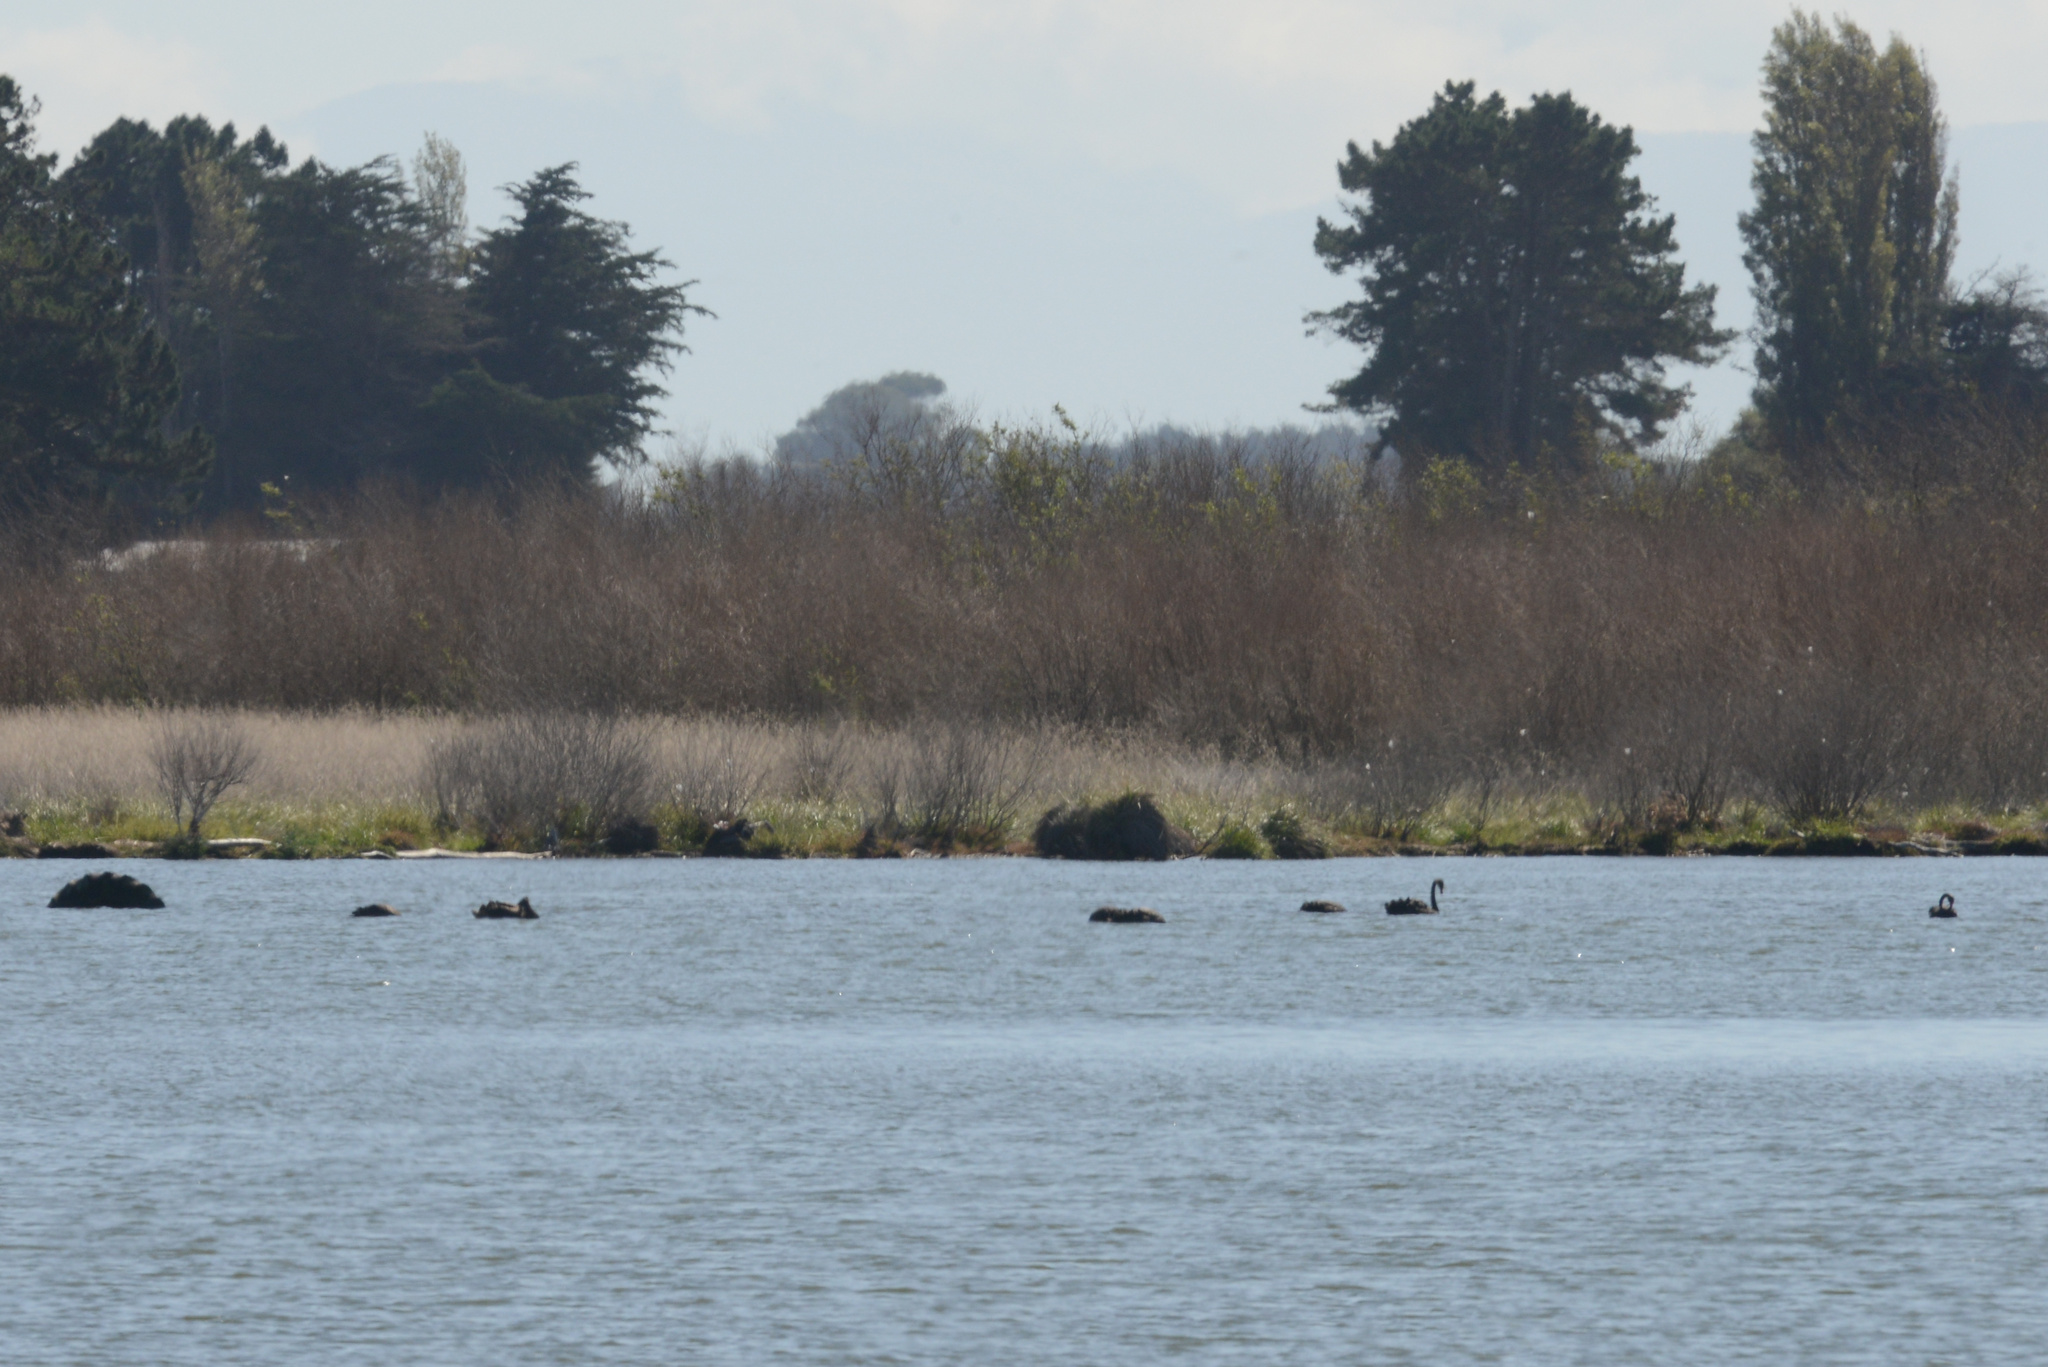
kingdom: Animalia
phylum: Chordata
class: Aves
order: Anseriformes
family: Anatidae
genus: Cygnus
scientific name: Cygnus atratus
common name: Black swan
